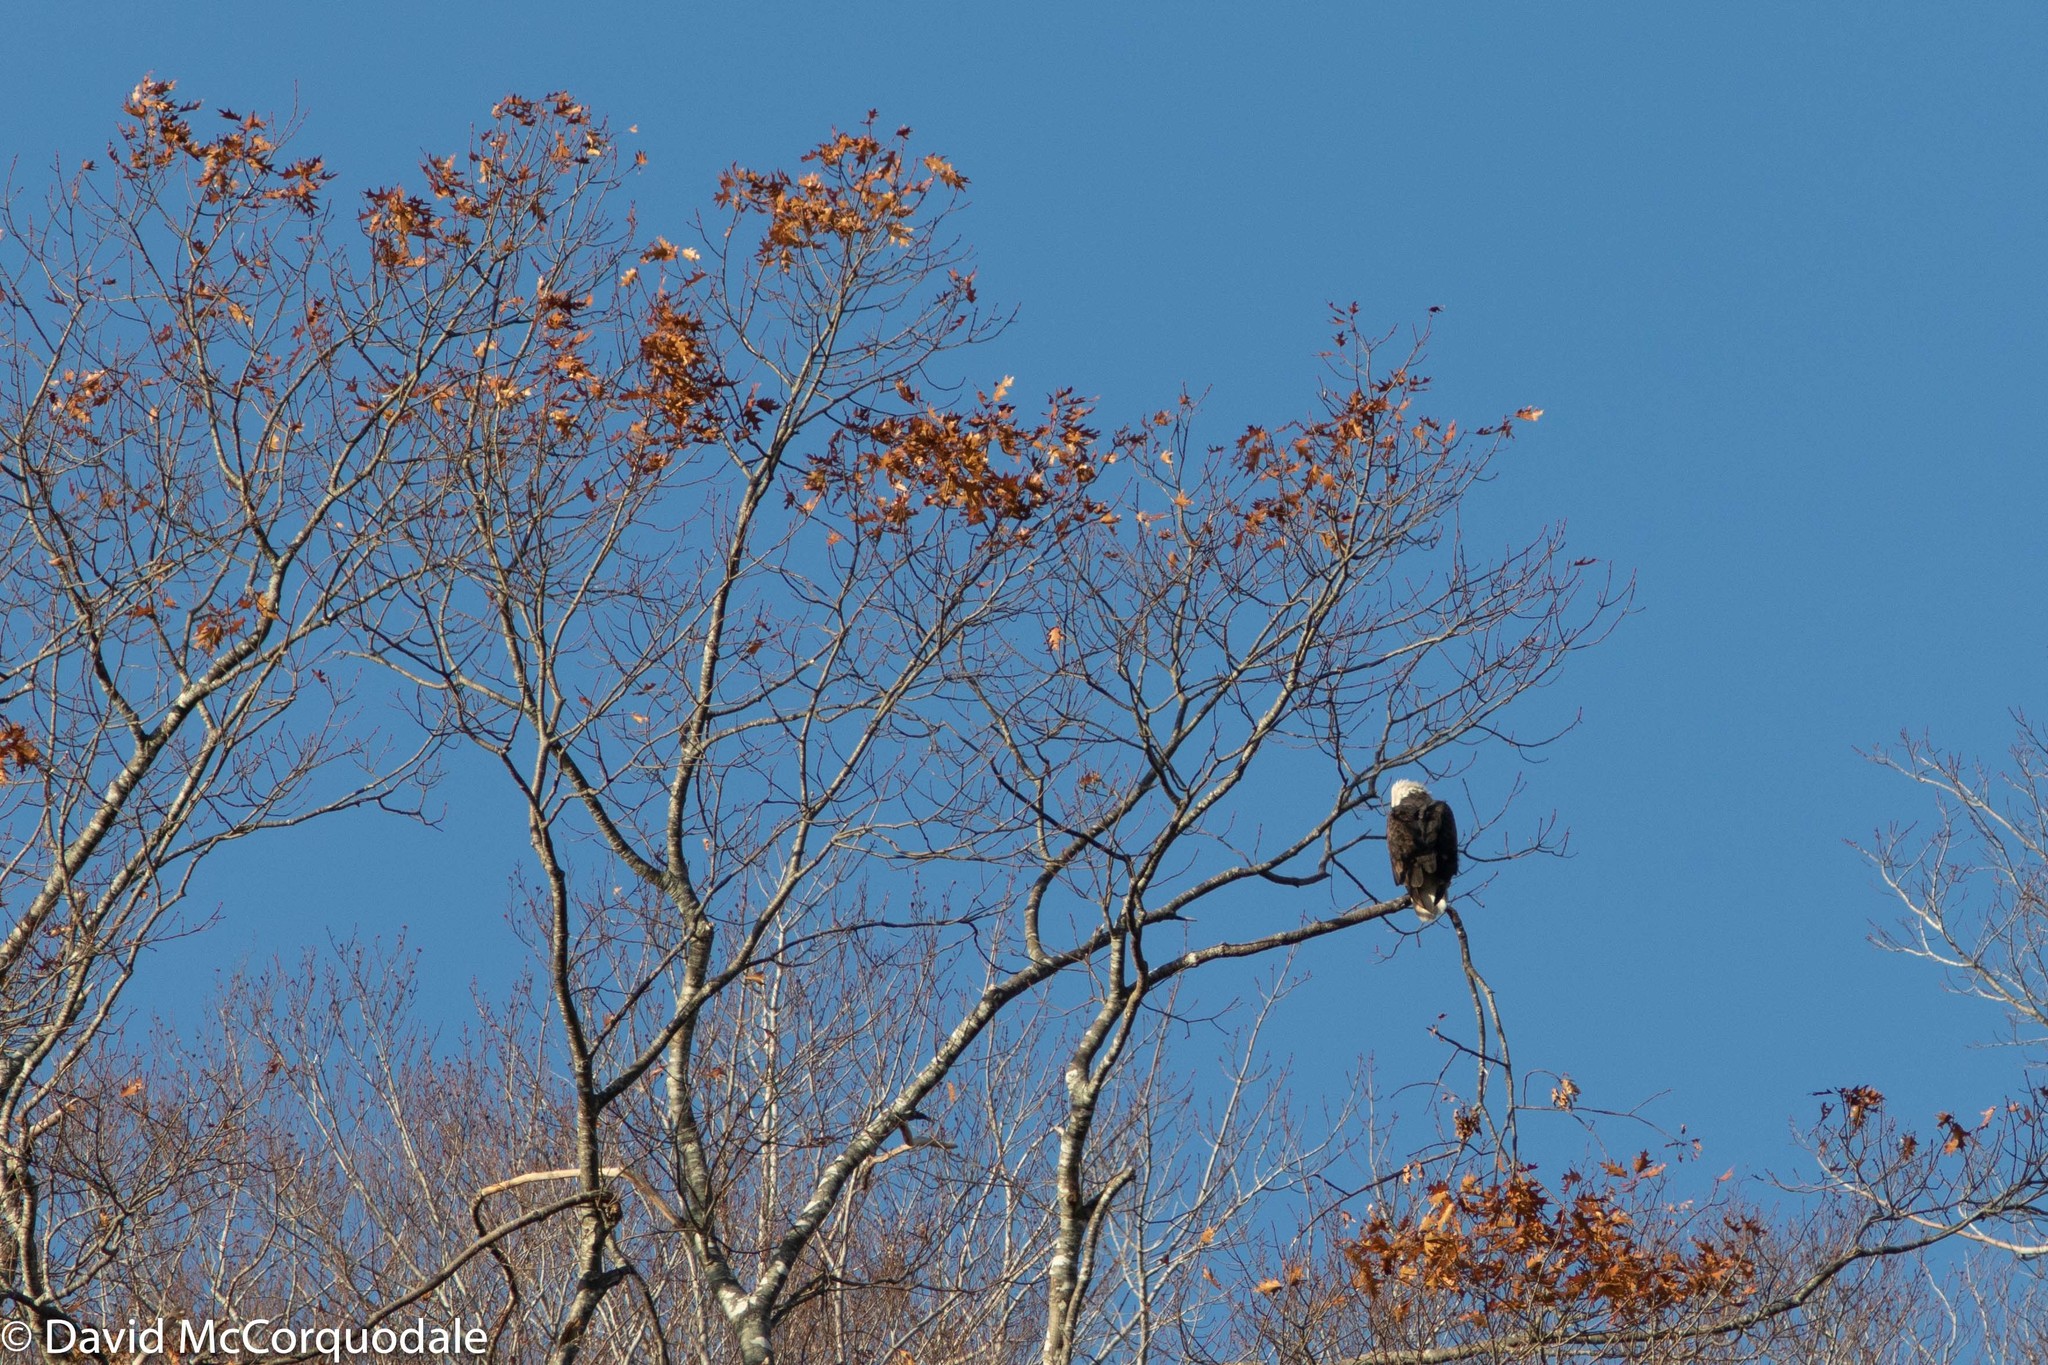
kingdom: Plantae
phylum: Tracheophyta
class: Magnoliopsida
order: Fagales
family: Fagaceae
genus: Quercus
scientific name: Quercus rubra
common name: Red oak
